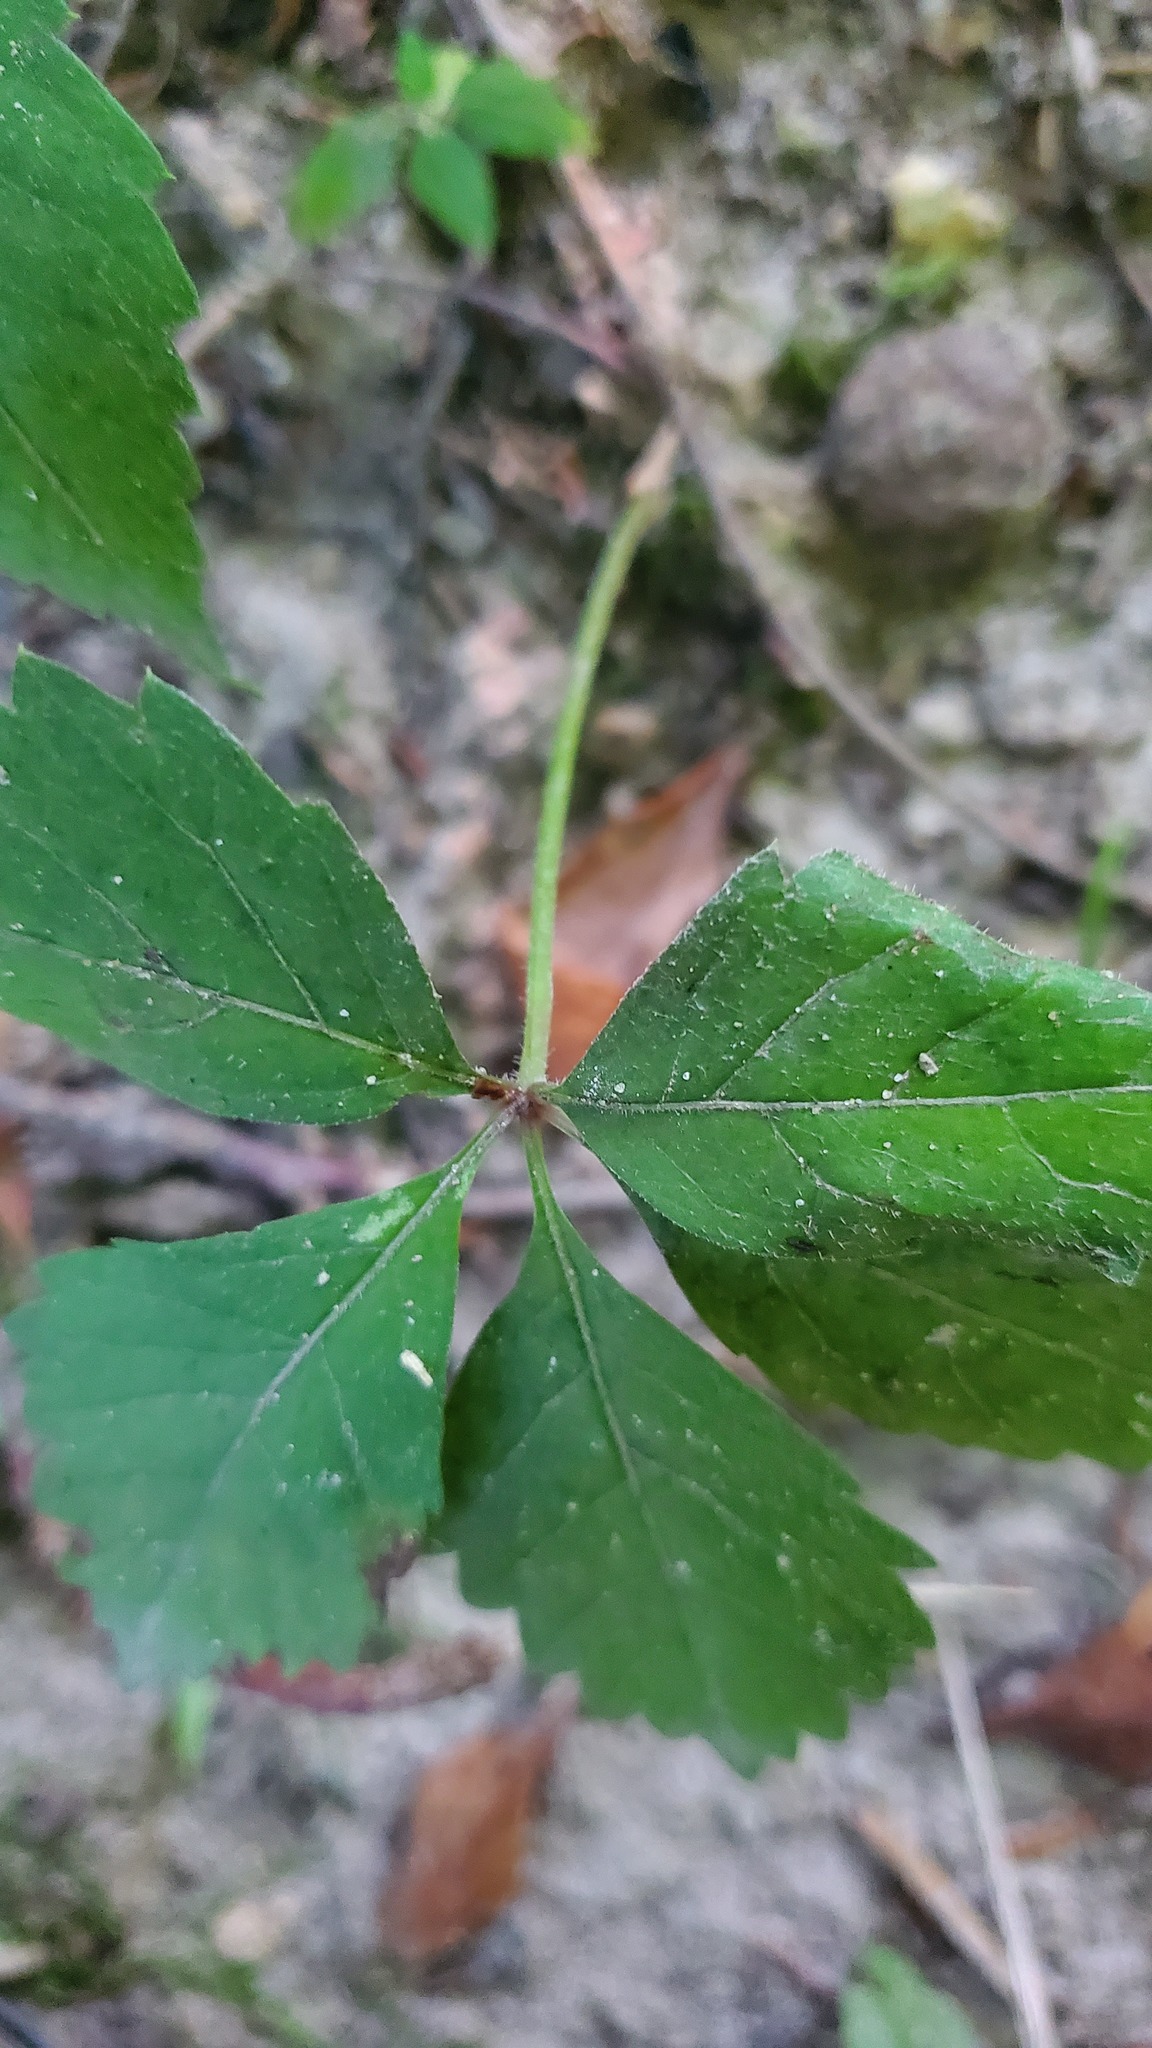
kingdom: Plantae
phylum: Tracheophyta
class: Magnoliopsida
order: Vitales
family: Vitaceae
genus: Parthenocissus
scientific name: Parthenocissus quinquefolia
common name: Virginia-creeper
